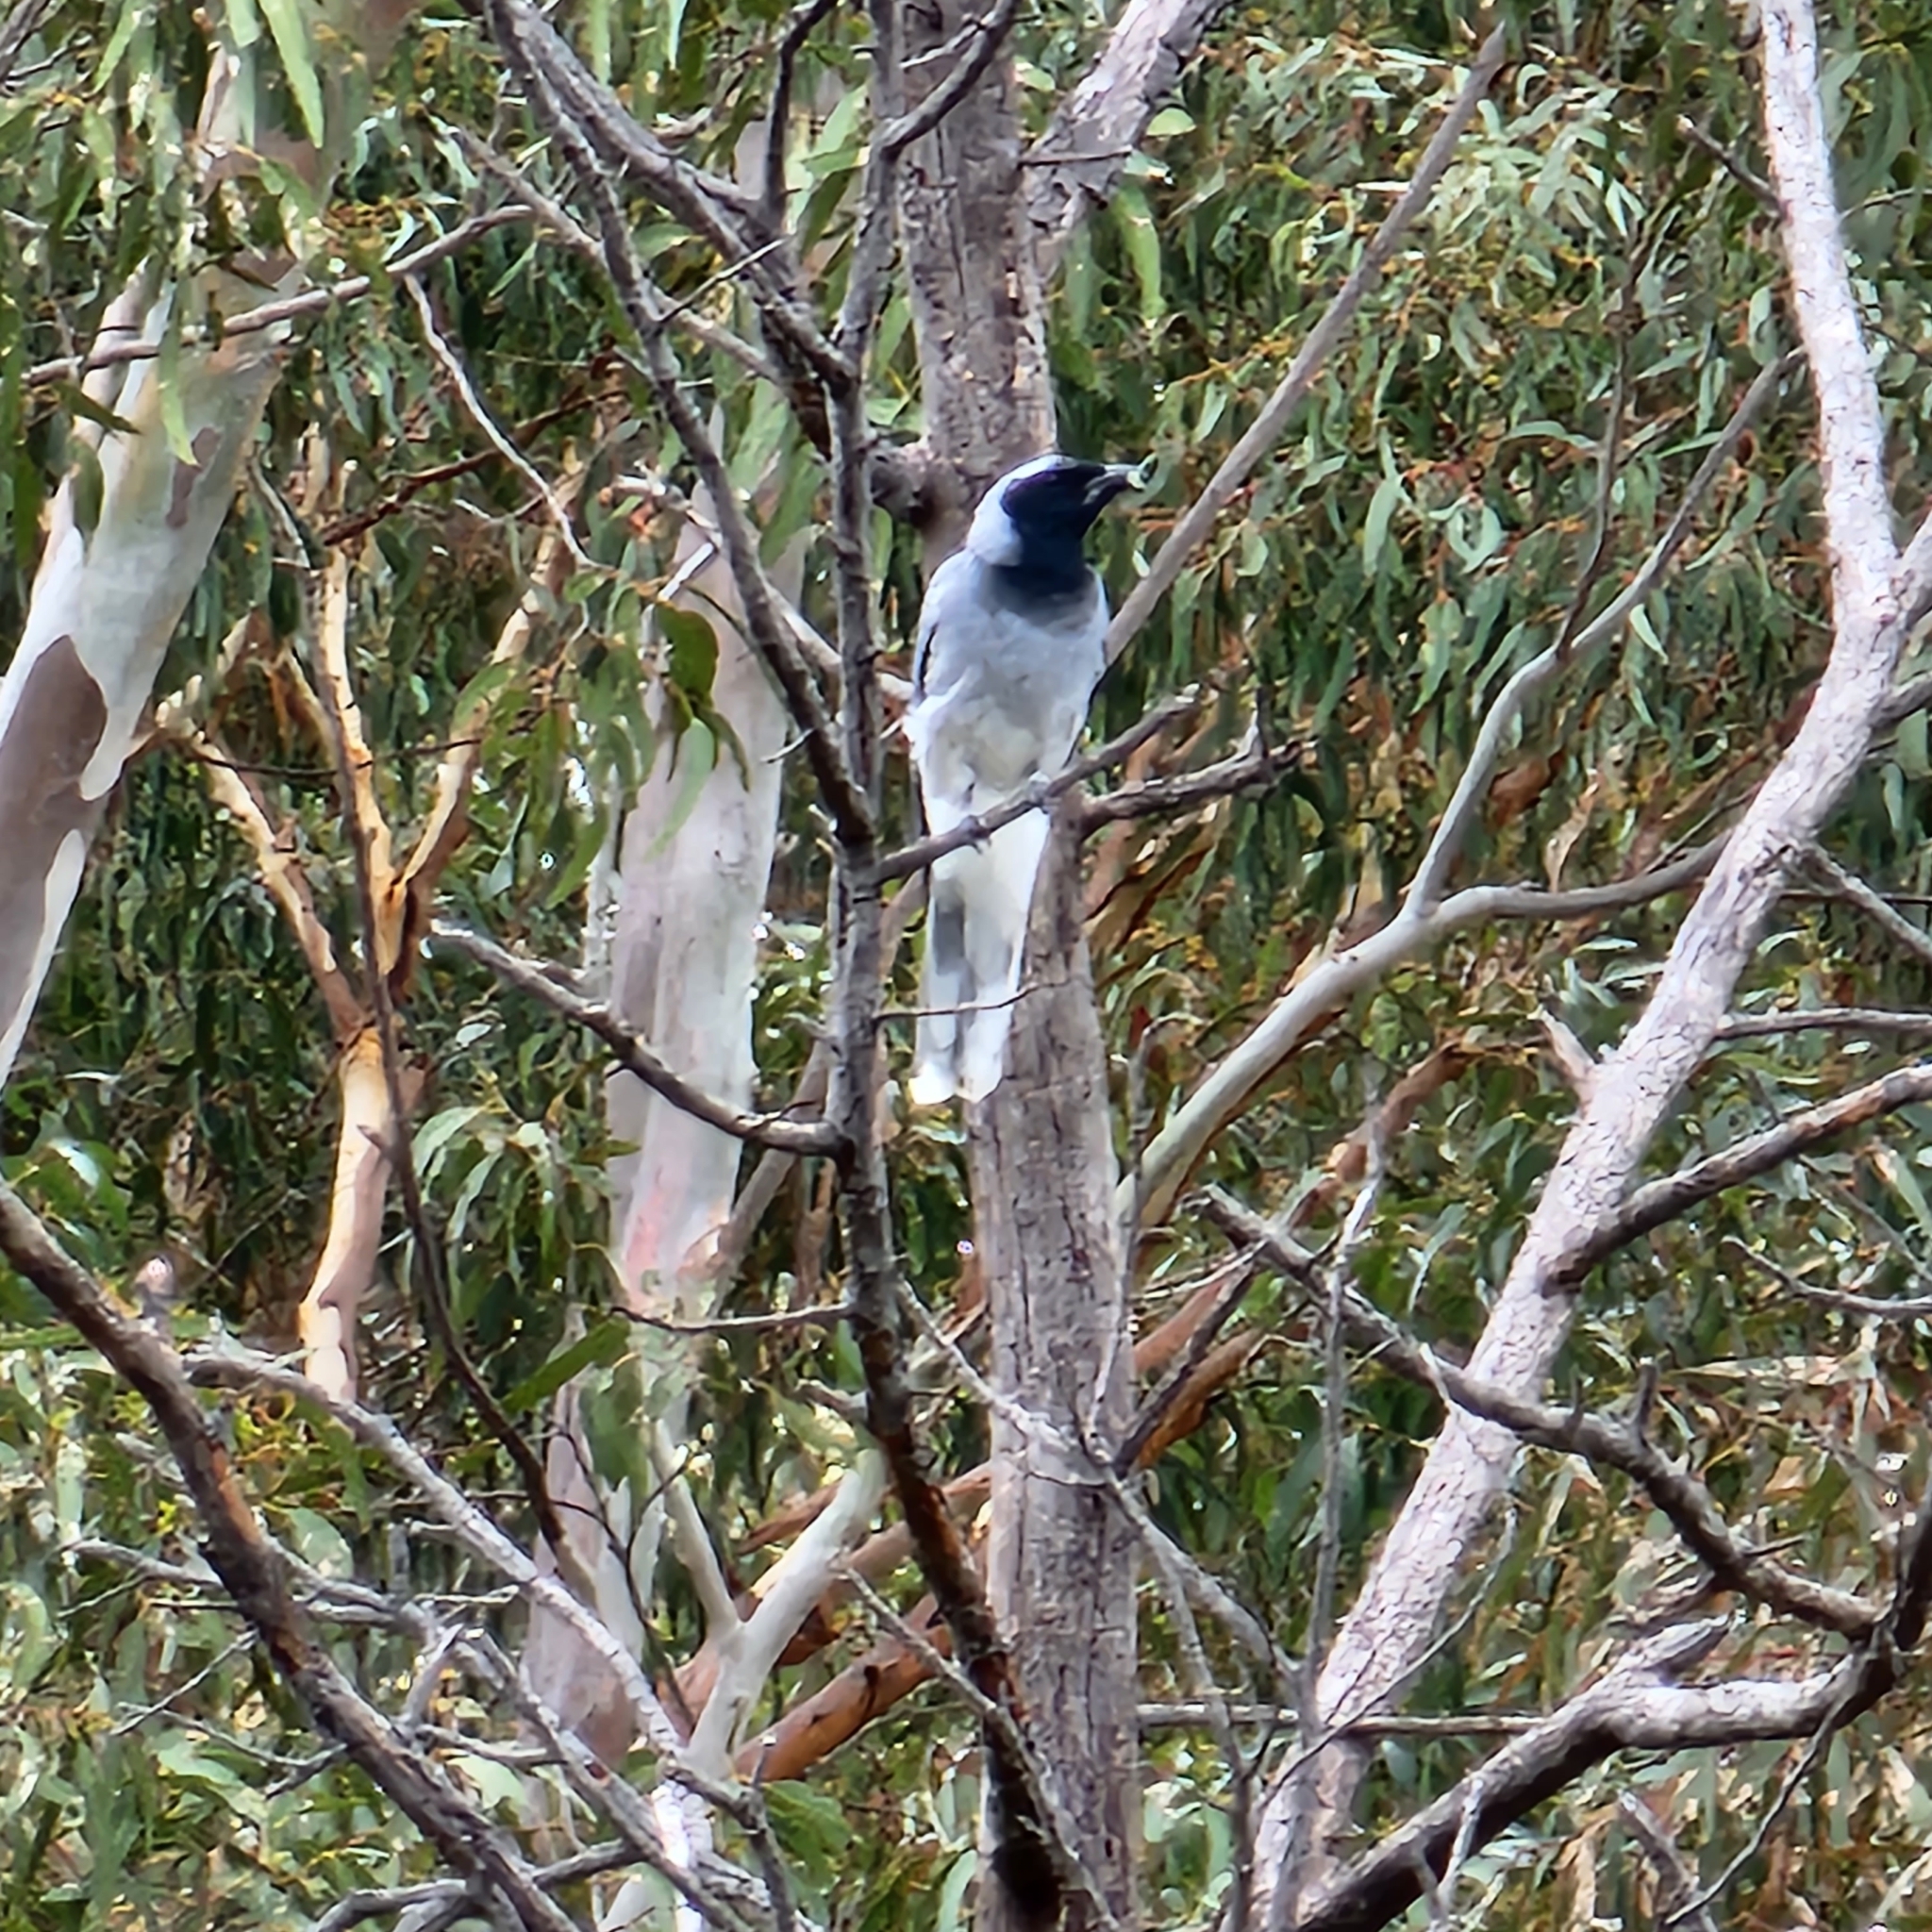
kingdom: Animalia
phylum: Chordata
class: Aves
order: Passeriformes
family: Campephagidae
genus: Coracina
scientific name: Coracina novaehollandiae
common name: Black-faced cuckooshrike
